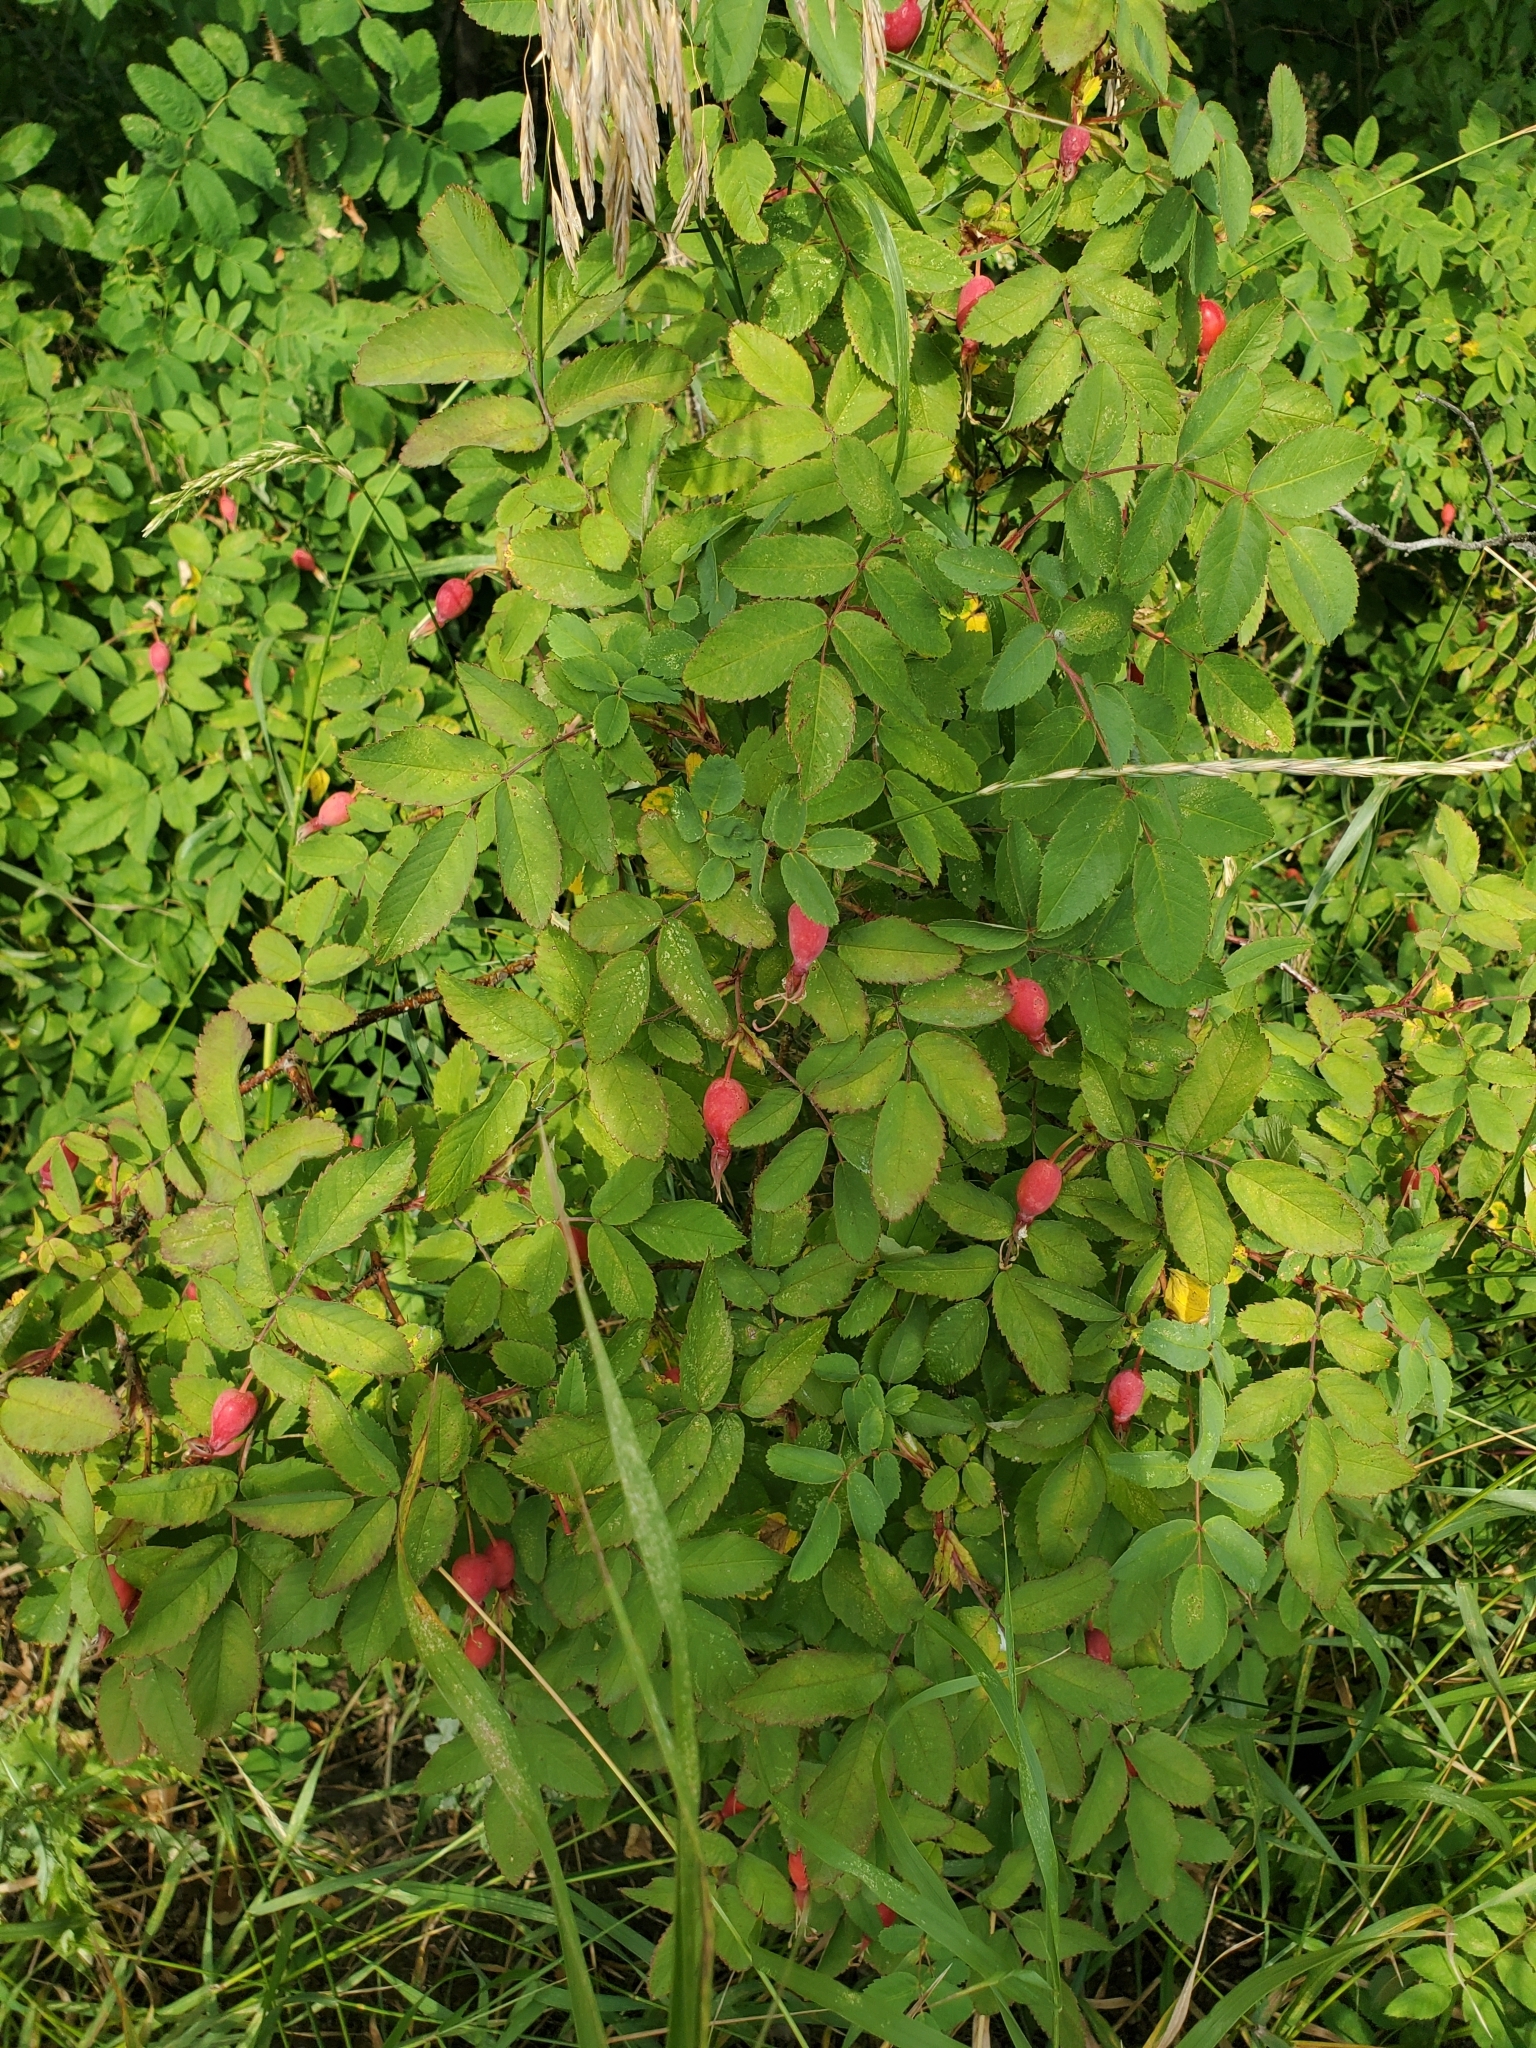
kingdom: Plantae
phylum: Tracheophyta
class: Magnoliopsida
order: Rosales
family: Rosaceae
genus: Rosa
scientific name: Rosa woodsii
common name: Woods's rose
